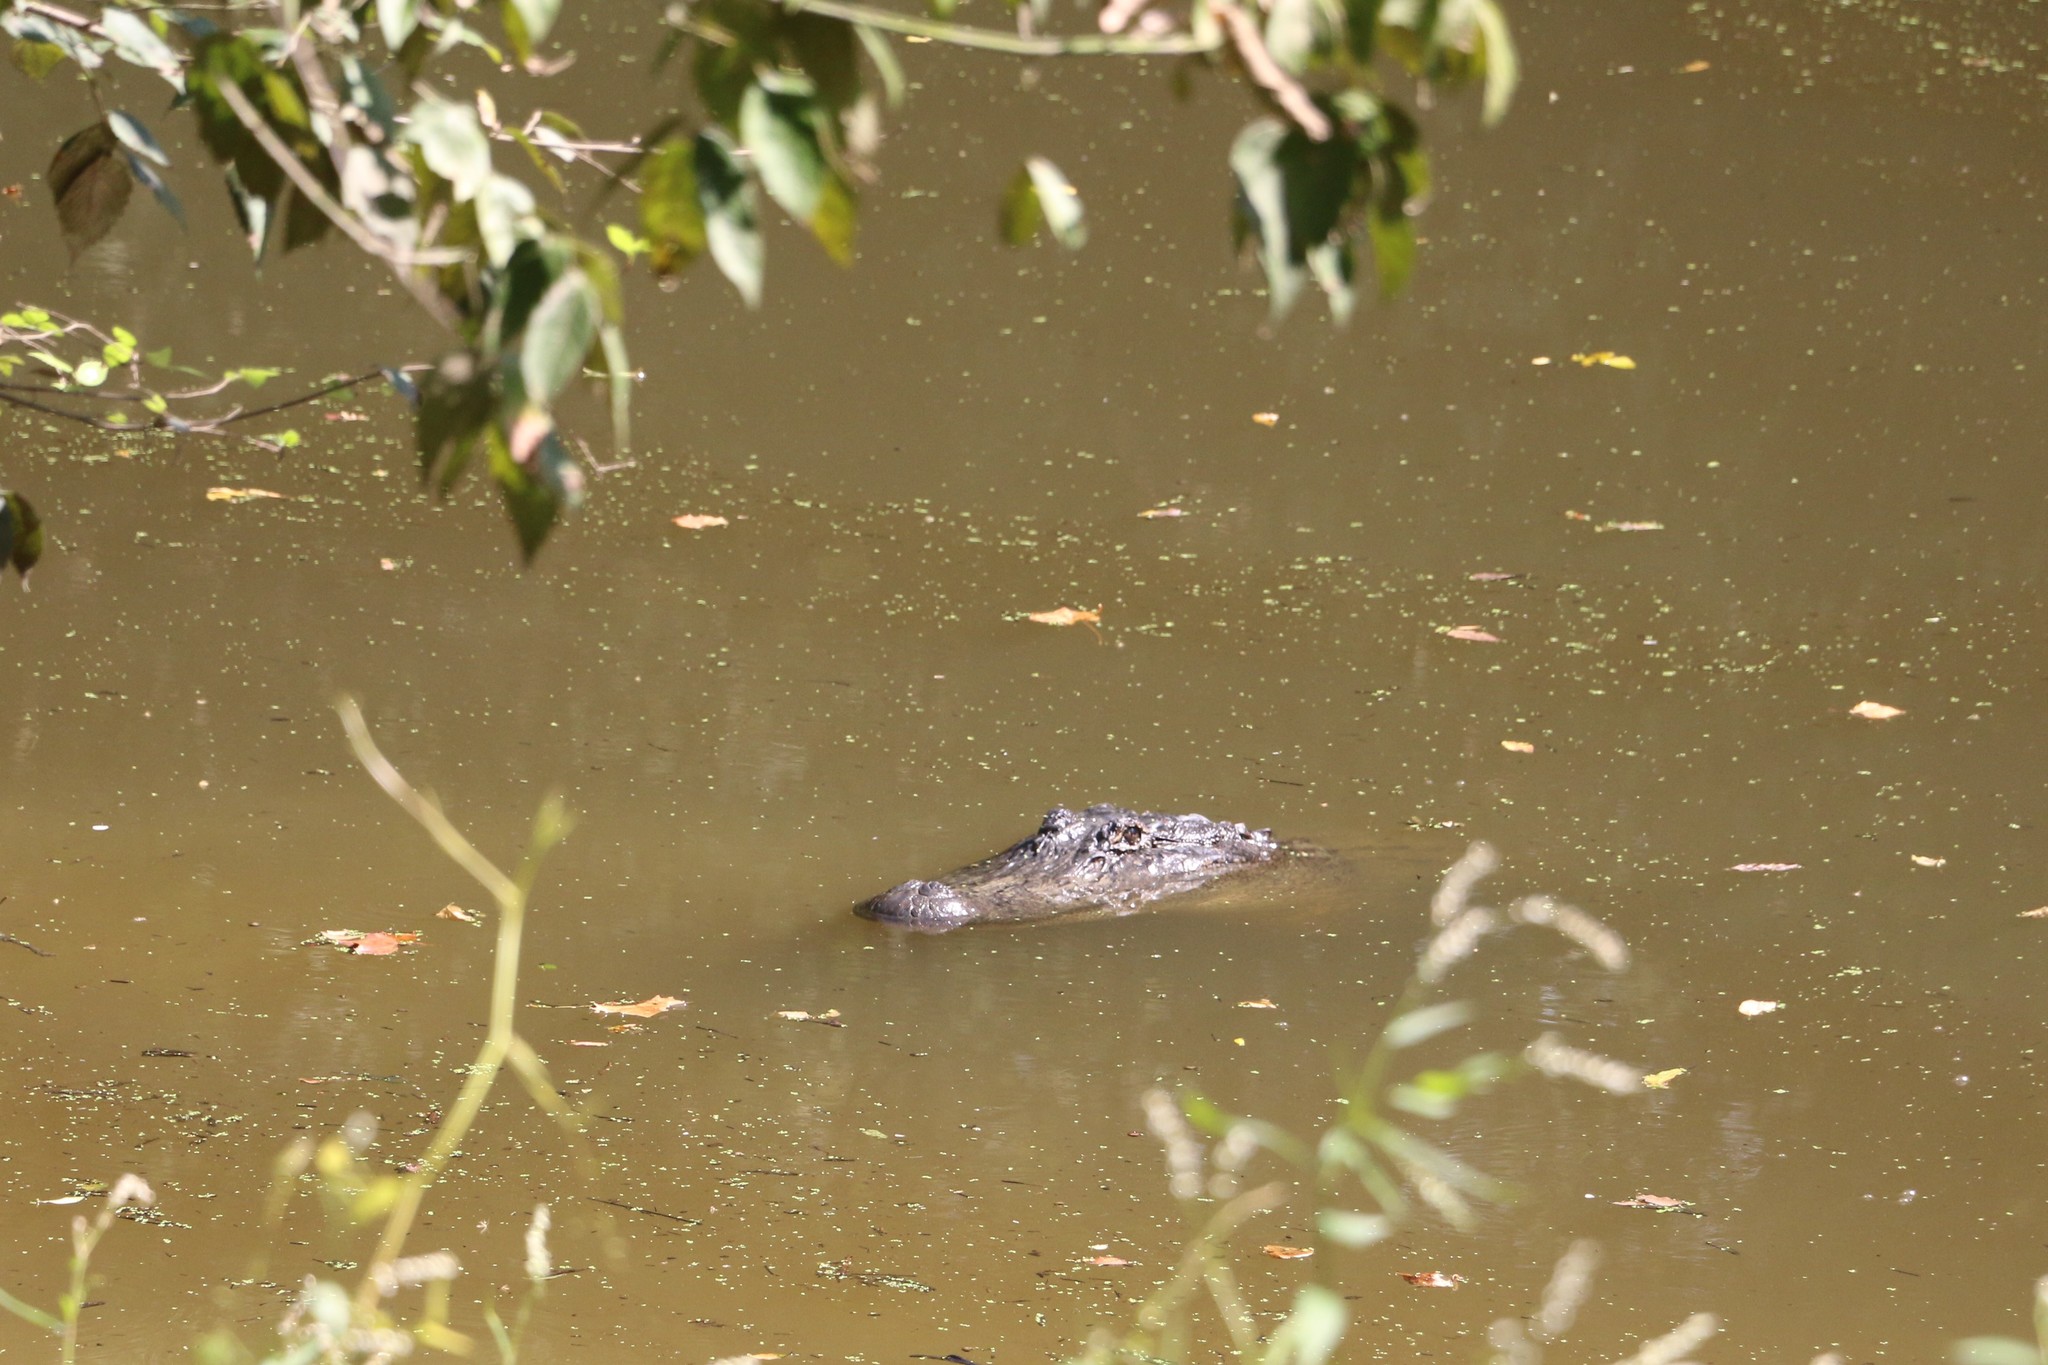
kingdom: Animalia
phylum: Chordata
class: Crocodylia
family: Alligatoridae
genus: Alligator
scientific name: Alligator mississippiensis
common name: American alligator
